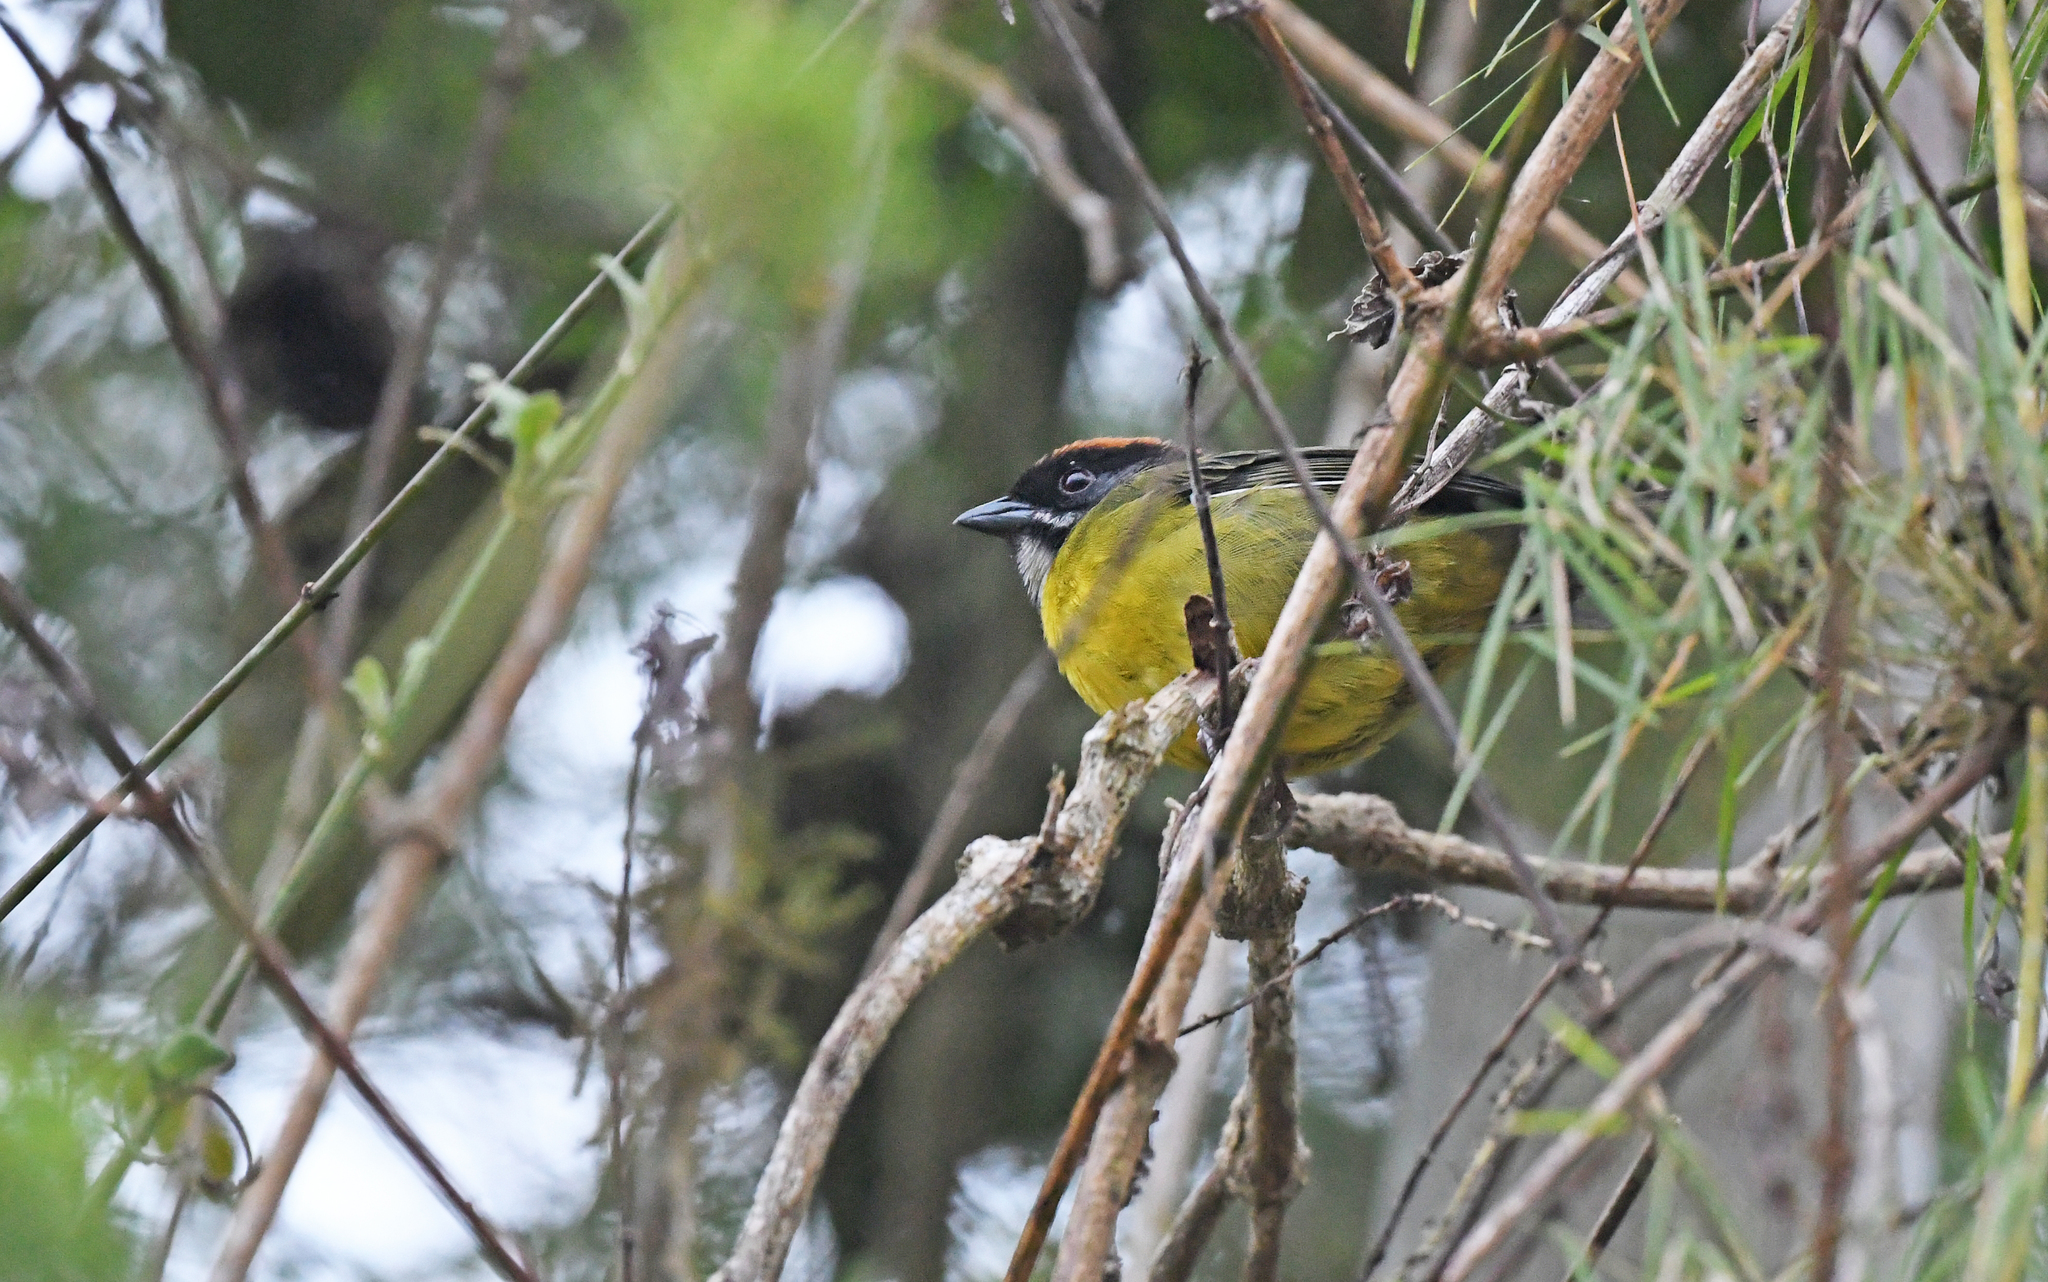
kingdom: Animalia
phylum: Chordata
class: Aves
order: Passeriformes
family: Passerellidae
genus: Atlapetes
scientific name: Atlapetes albofrenatus
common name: Moustached brushfinch
